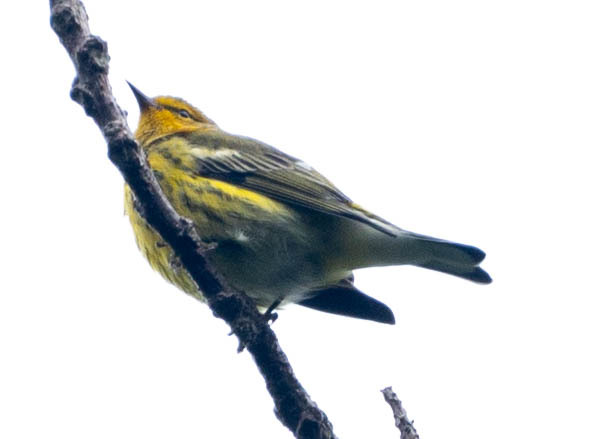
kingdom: Animalia
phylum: Chordata
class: Aves
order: Passeriformes
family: Parulidae
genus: Setophaga
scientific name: Setophaga tigrina
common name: Cape may warbler
